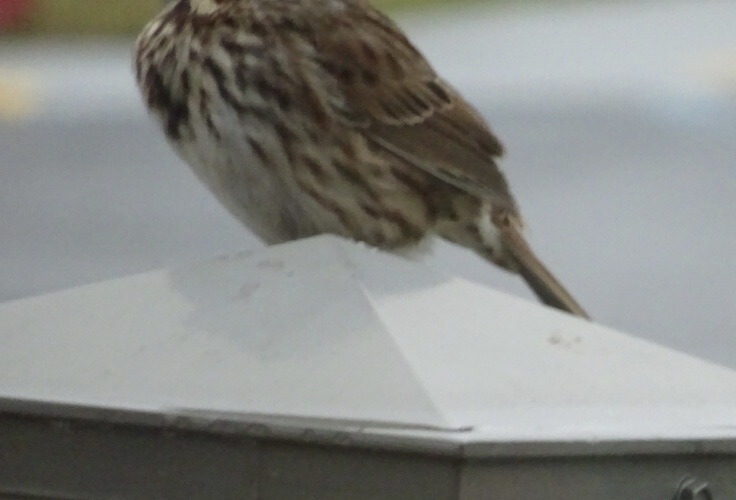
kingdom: Animalia
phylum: Chordata
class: Aves
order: Passeriformes
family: Passerellidae
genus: Melospiza
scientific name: Melospiza melodia
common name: Song sparrow
